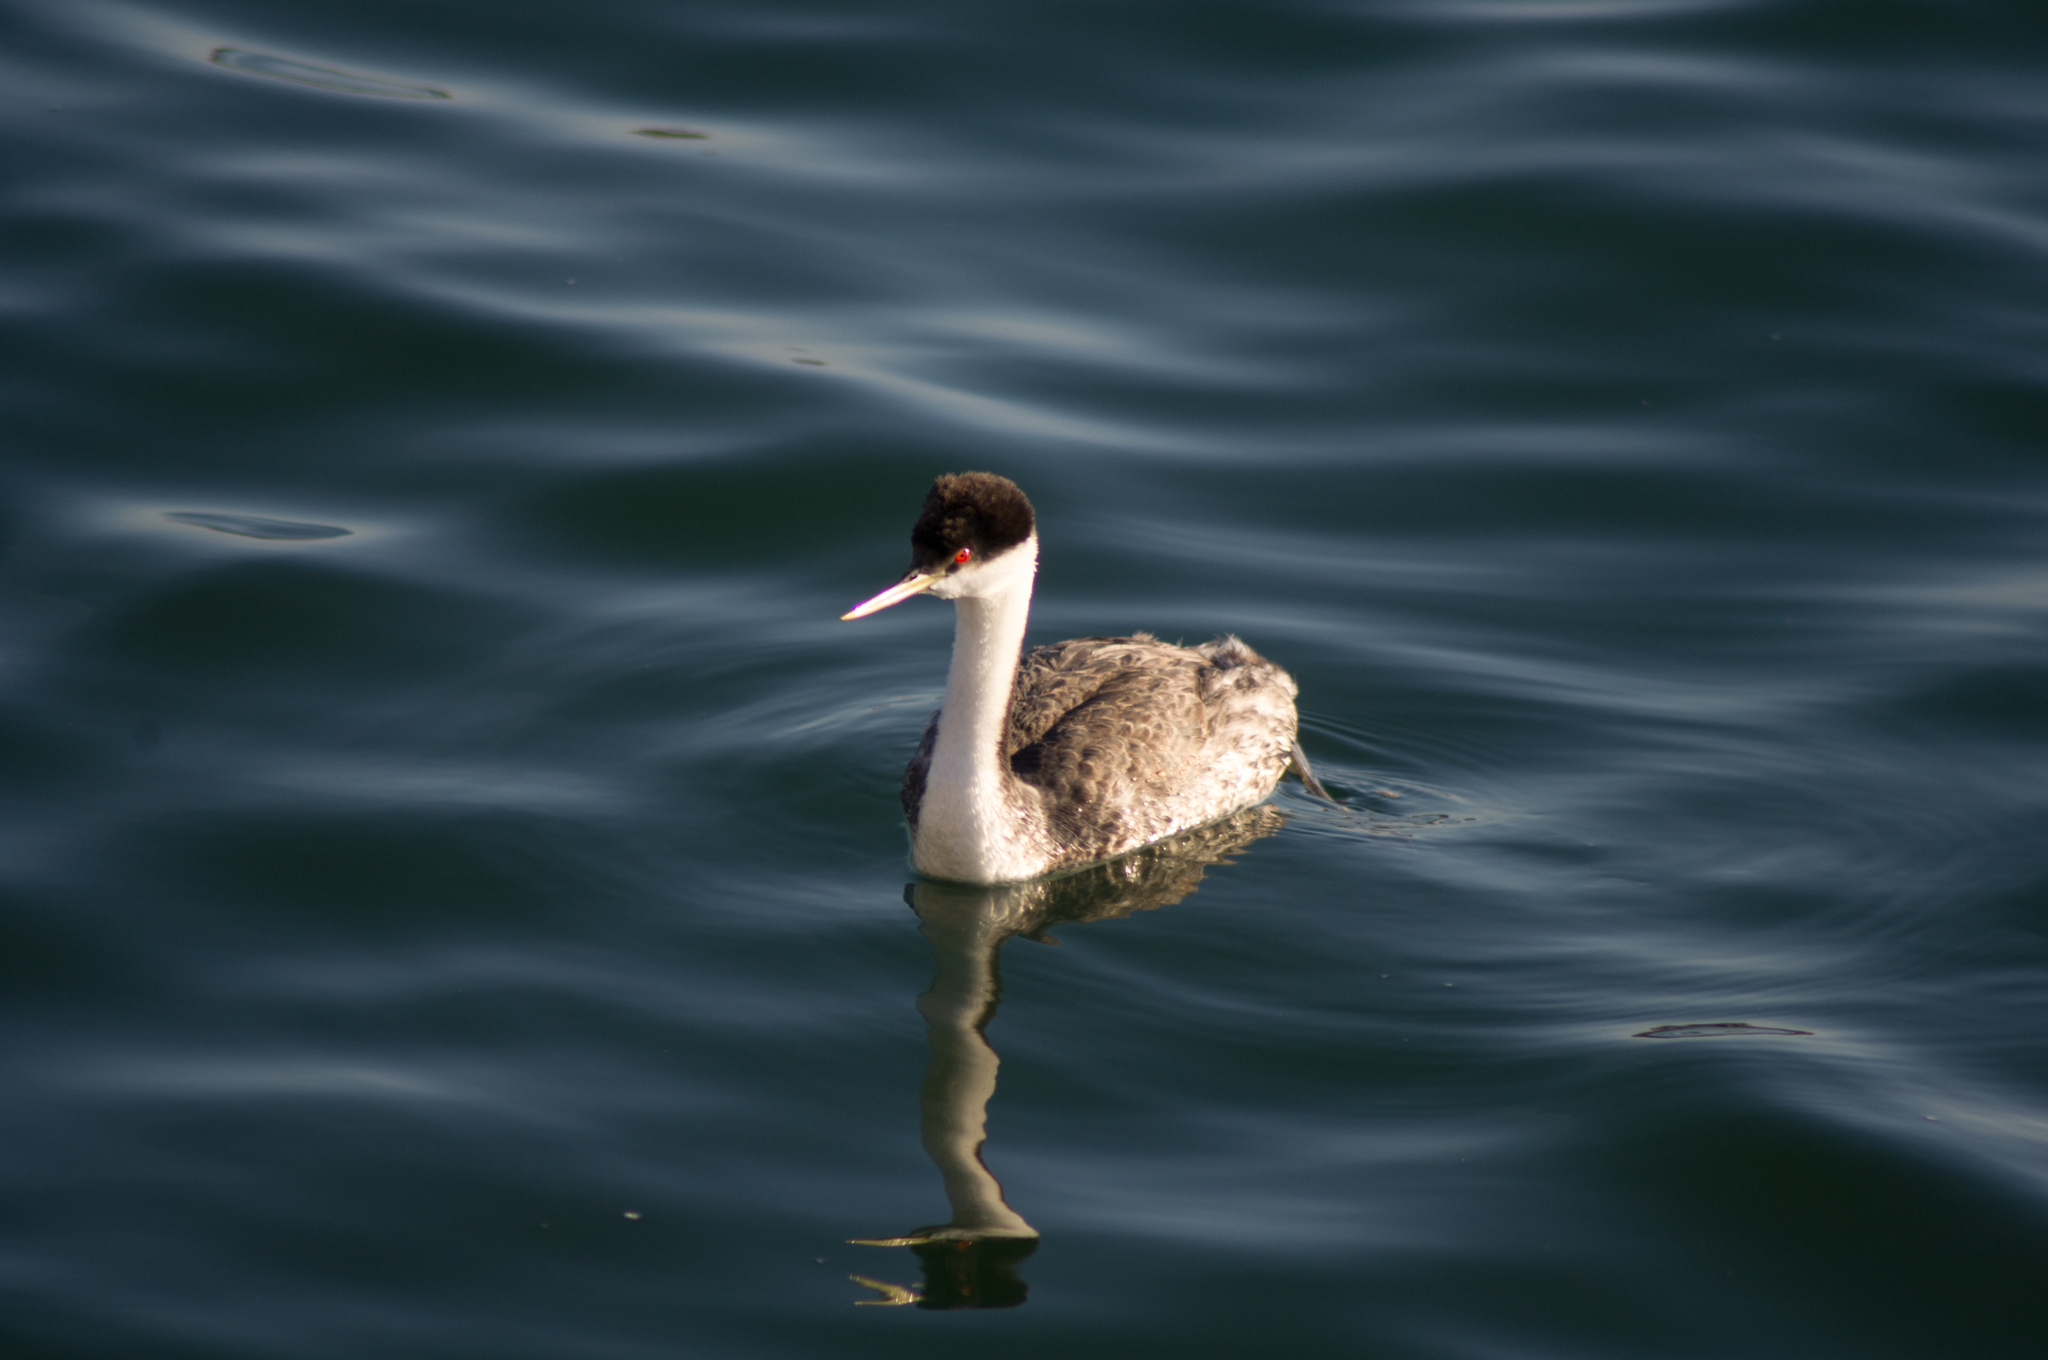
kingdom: Animalia
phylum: Chordata
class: Aves
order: Podicipediformes
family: Podicipedidae
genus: Aechmophorus
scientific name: Aechmophorus occidentalis
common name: Western grebe
